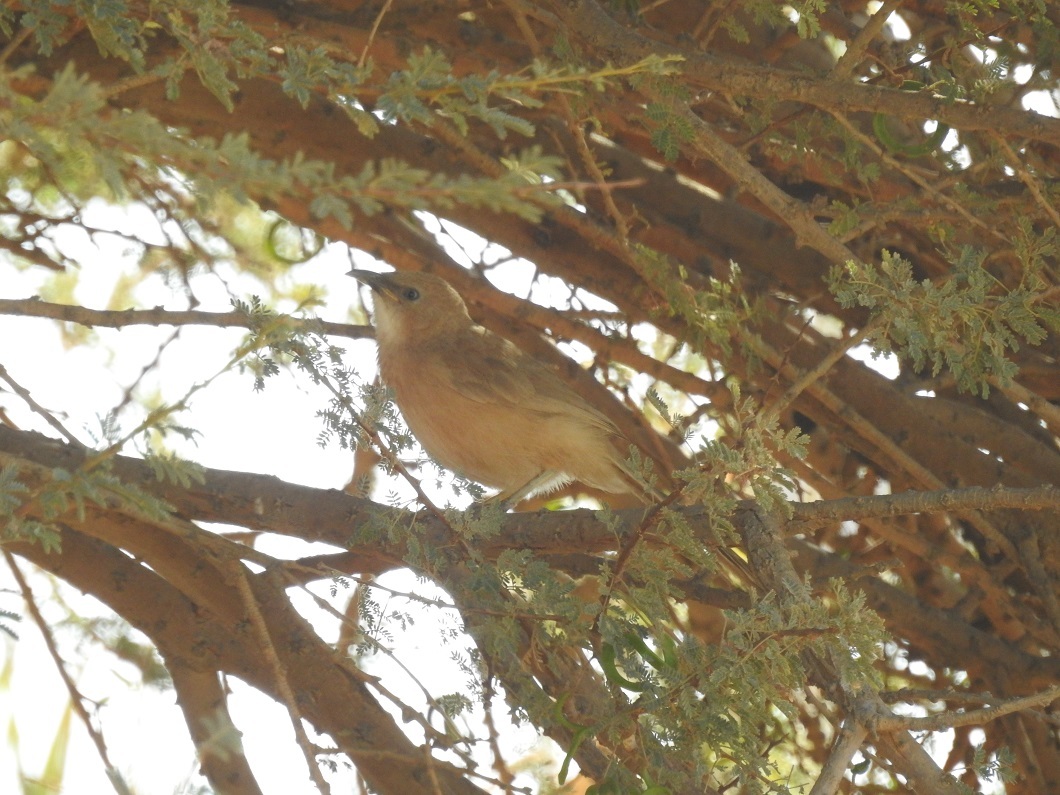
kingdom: Animalia
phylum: Chordata
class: Aves
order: Passeriformes
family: Leiothrichidae
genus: Turdoides
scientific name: Turdoides fulva
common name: Fulvous babbler
